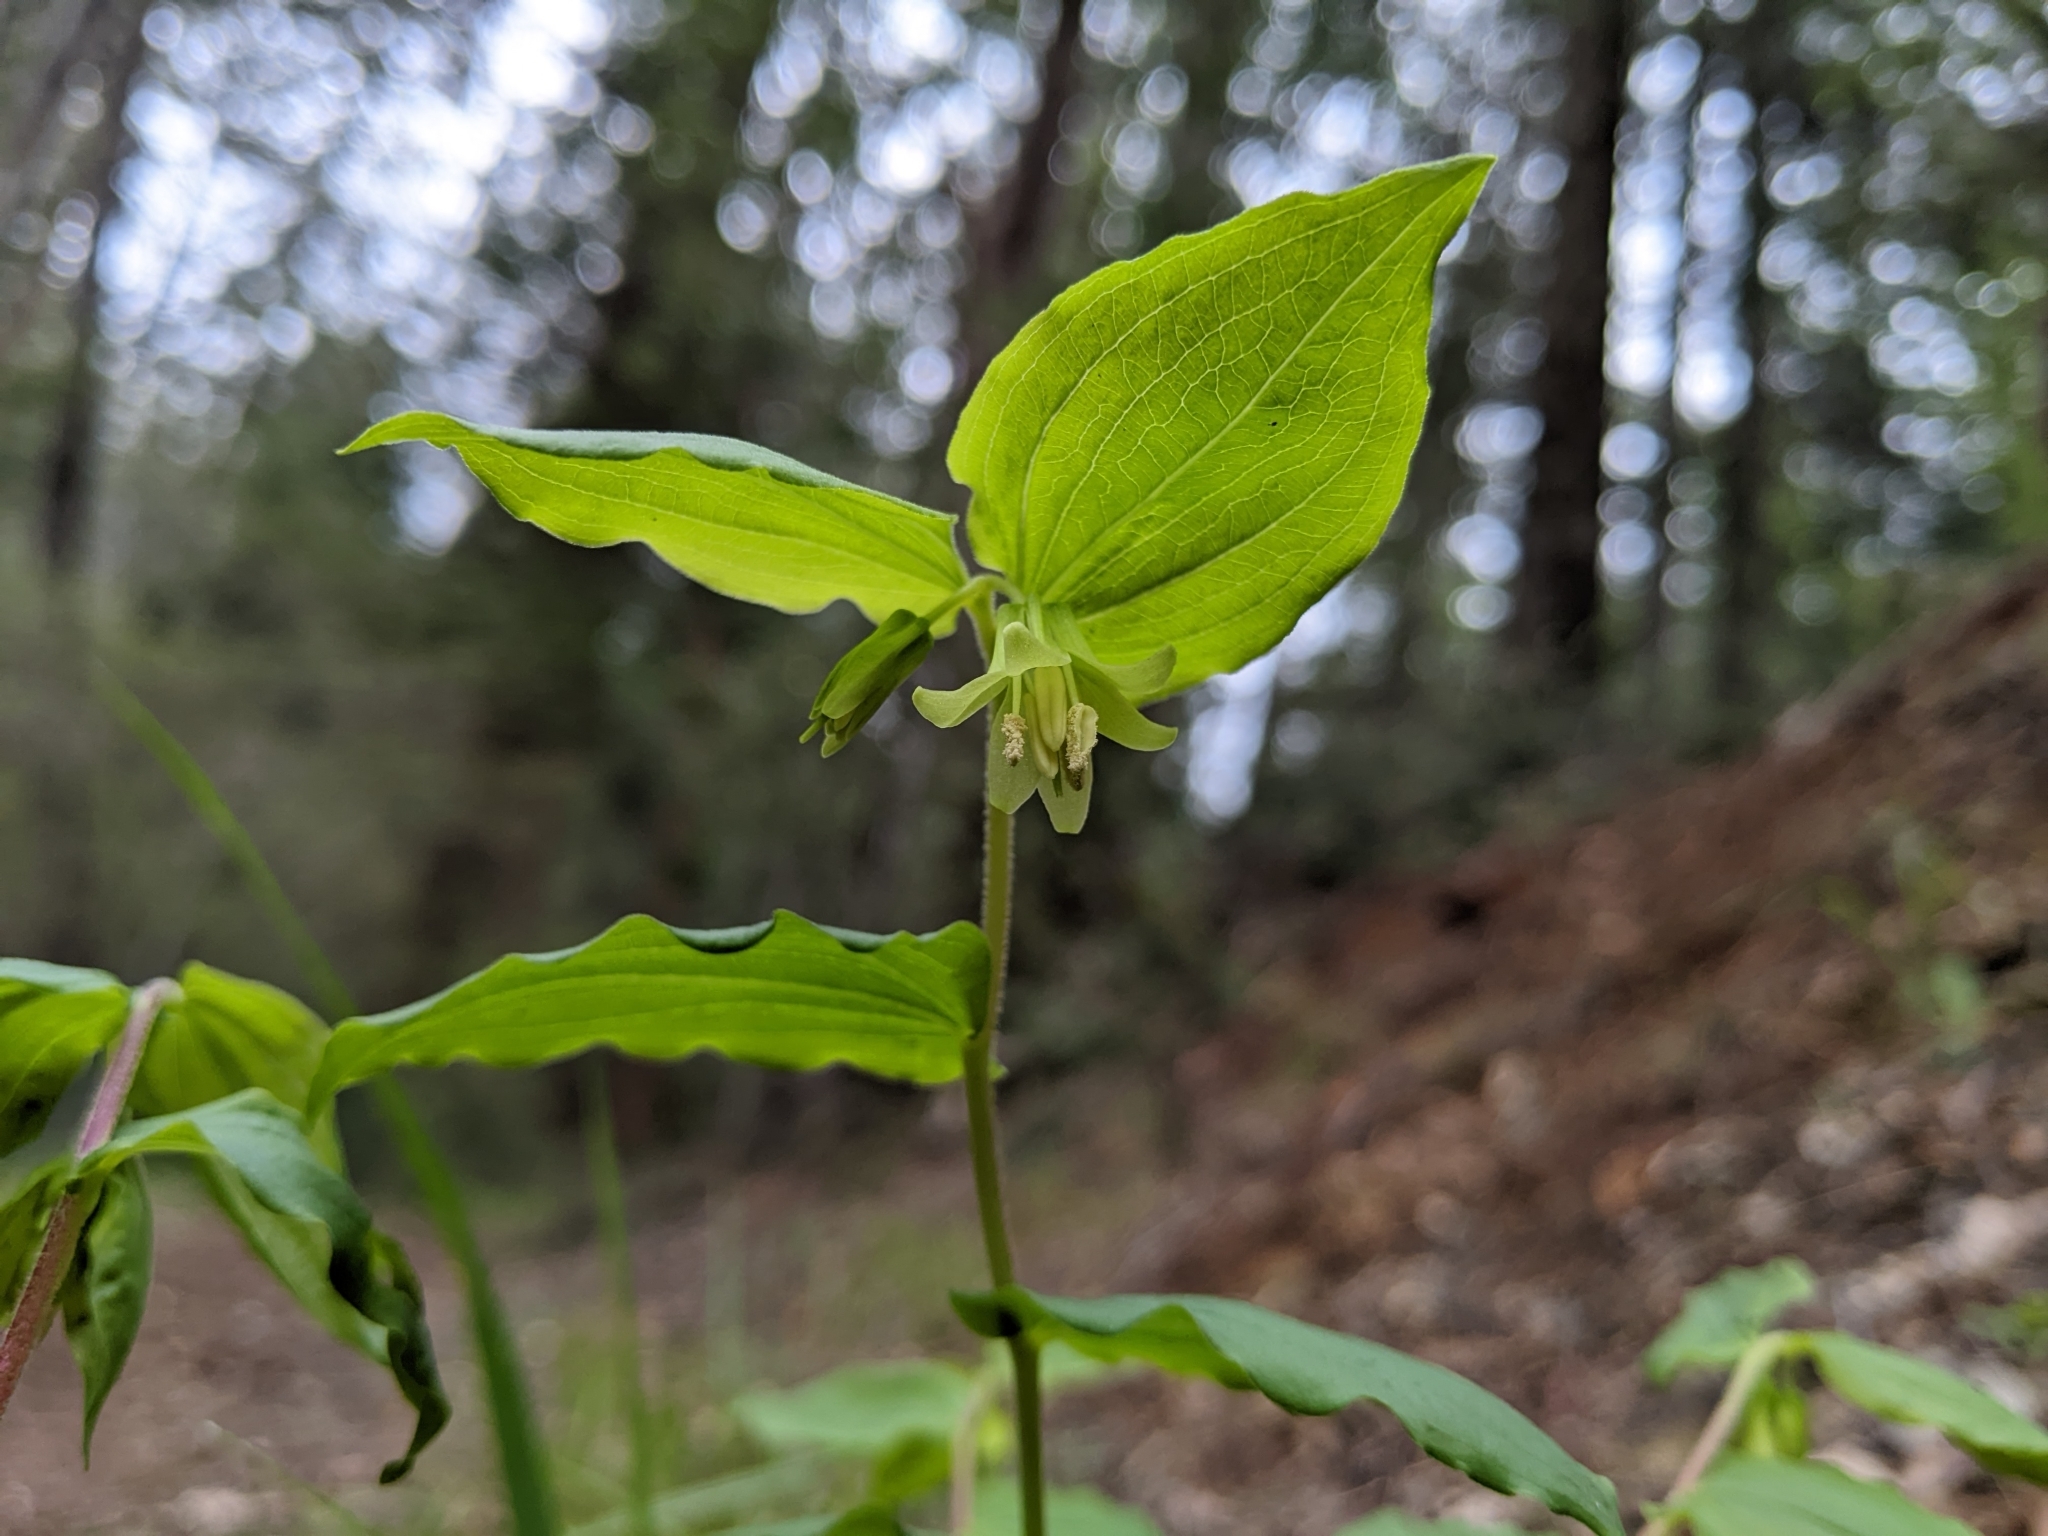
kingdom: Plantae
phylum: Tracheophyta
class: Liliopsida
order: Liliales
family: Liliaceae
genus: Prosartes
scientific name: Prosartes hookeri
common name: Fairy-bells
